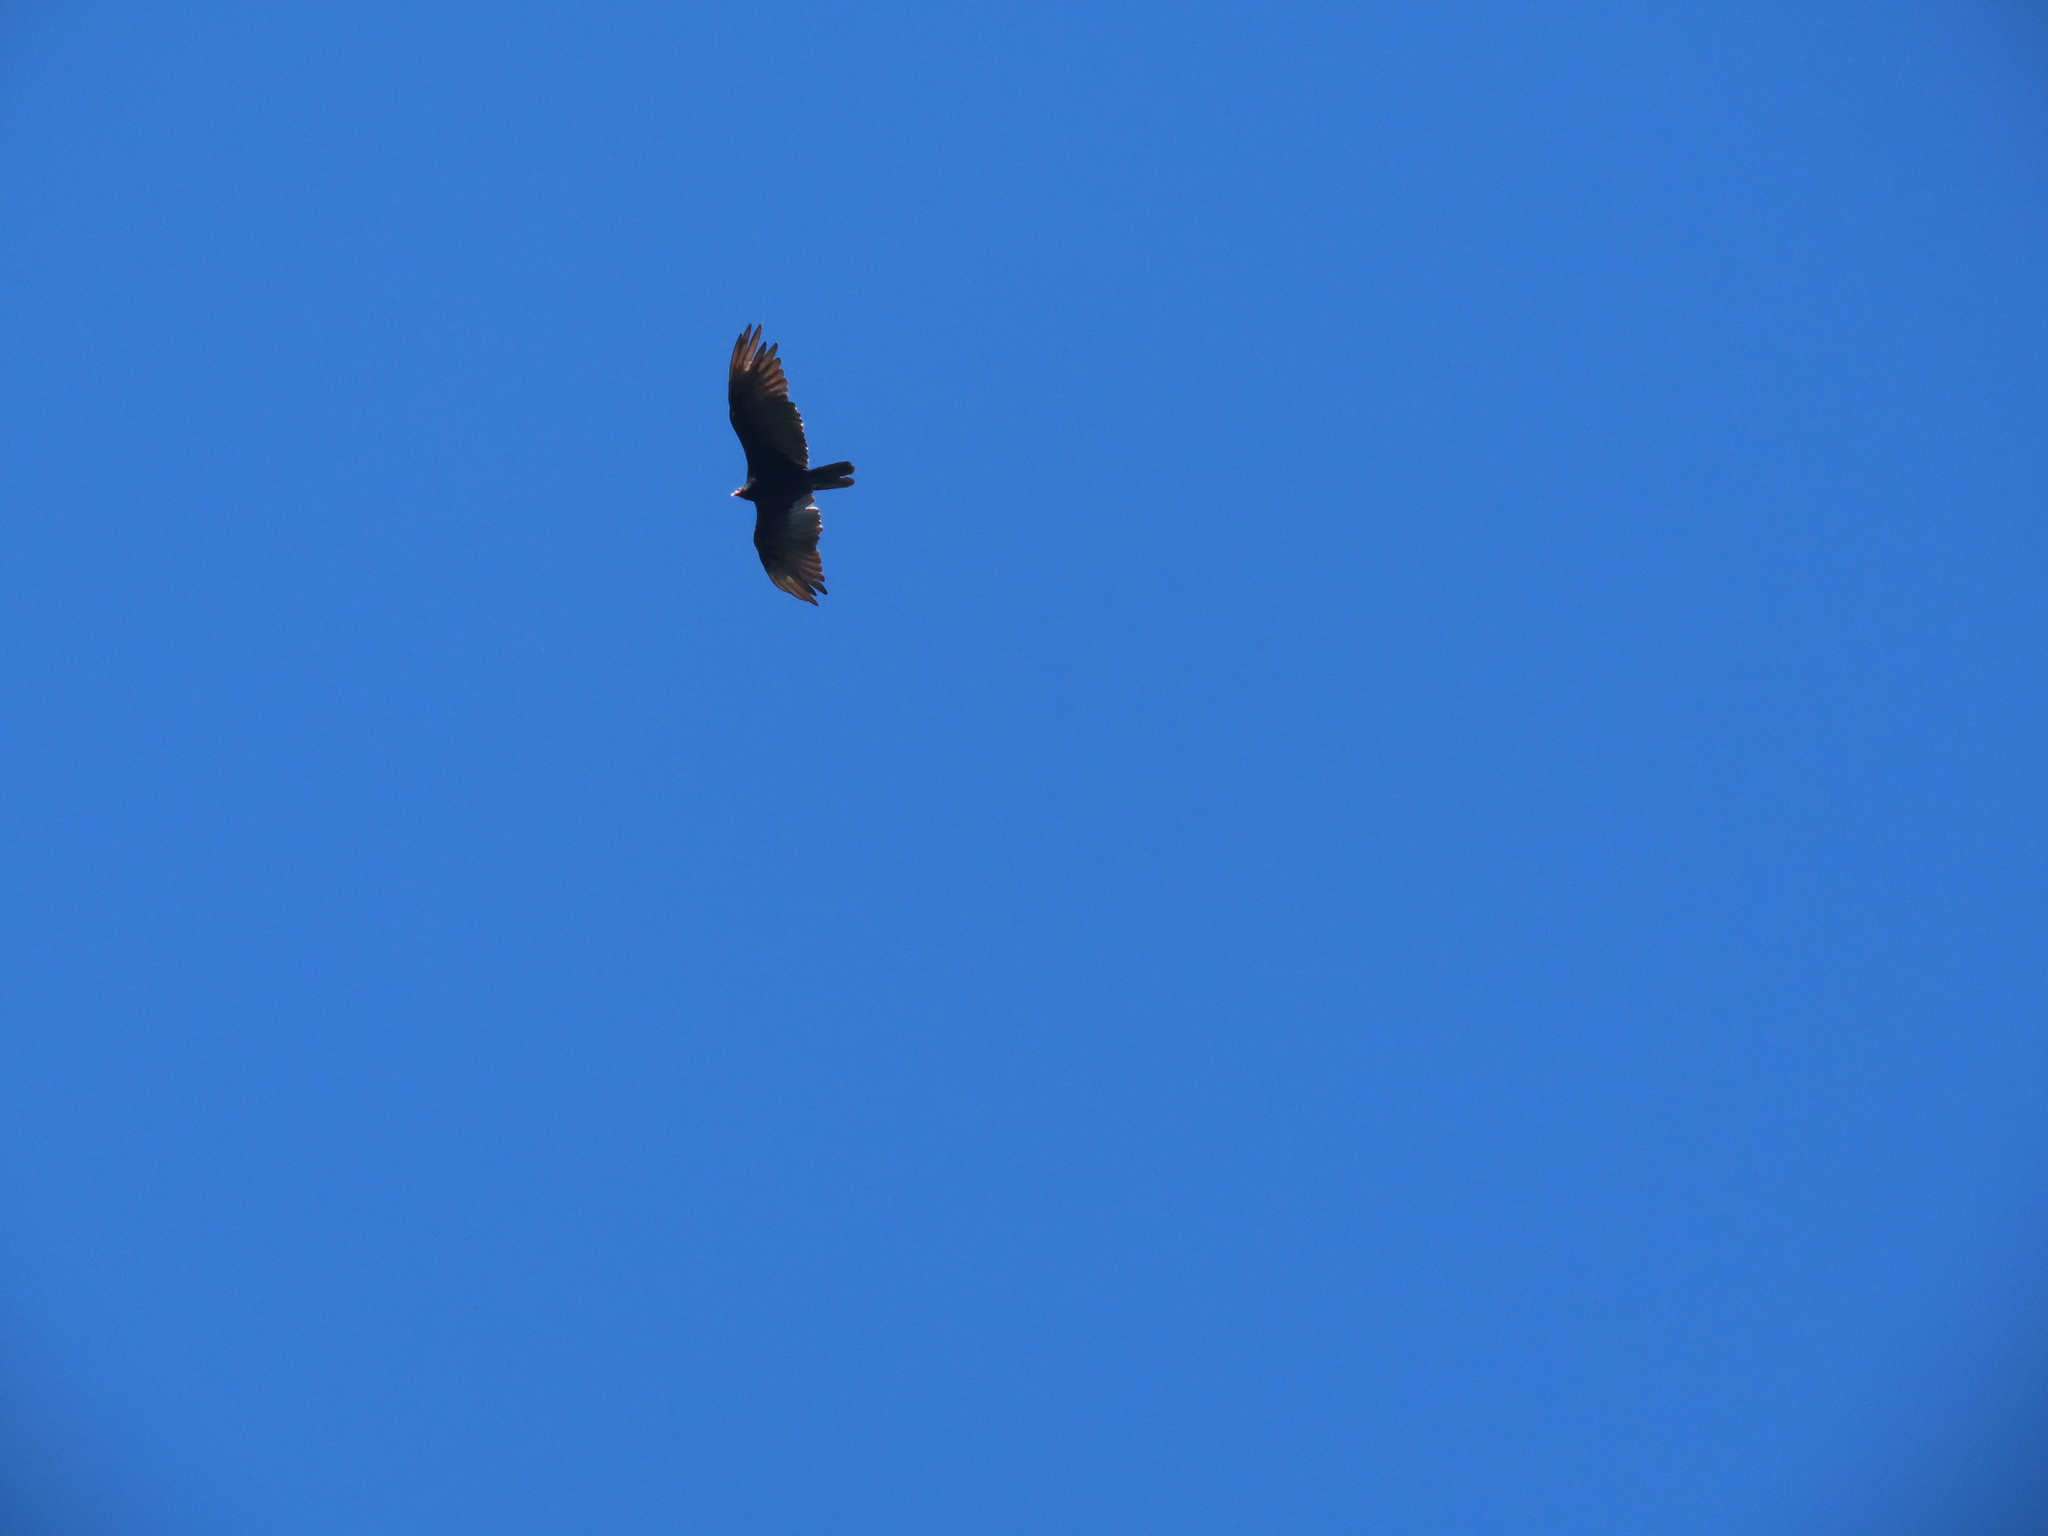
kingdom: Animalia
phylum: Chordata
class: Aves
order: Accipitriformes
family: Cathartidae
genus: Cathartes
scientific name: Cathartes aura
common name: Turkey vulture
